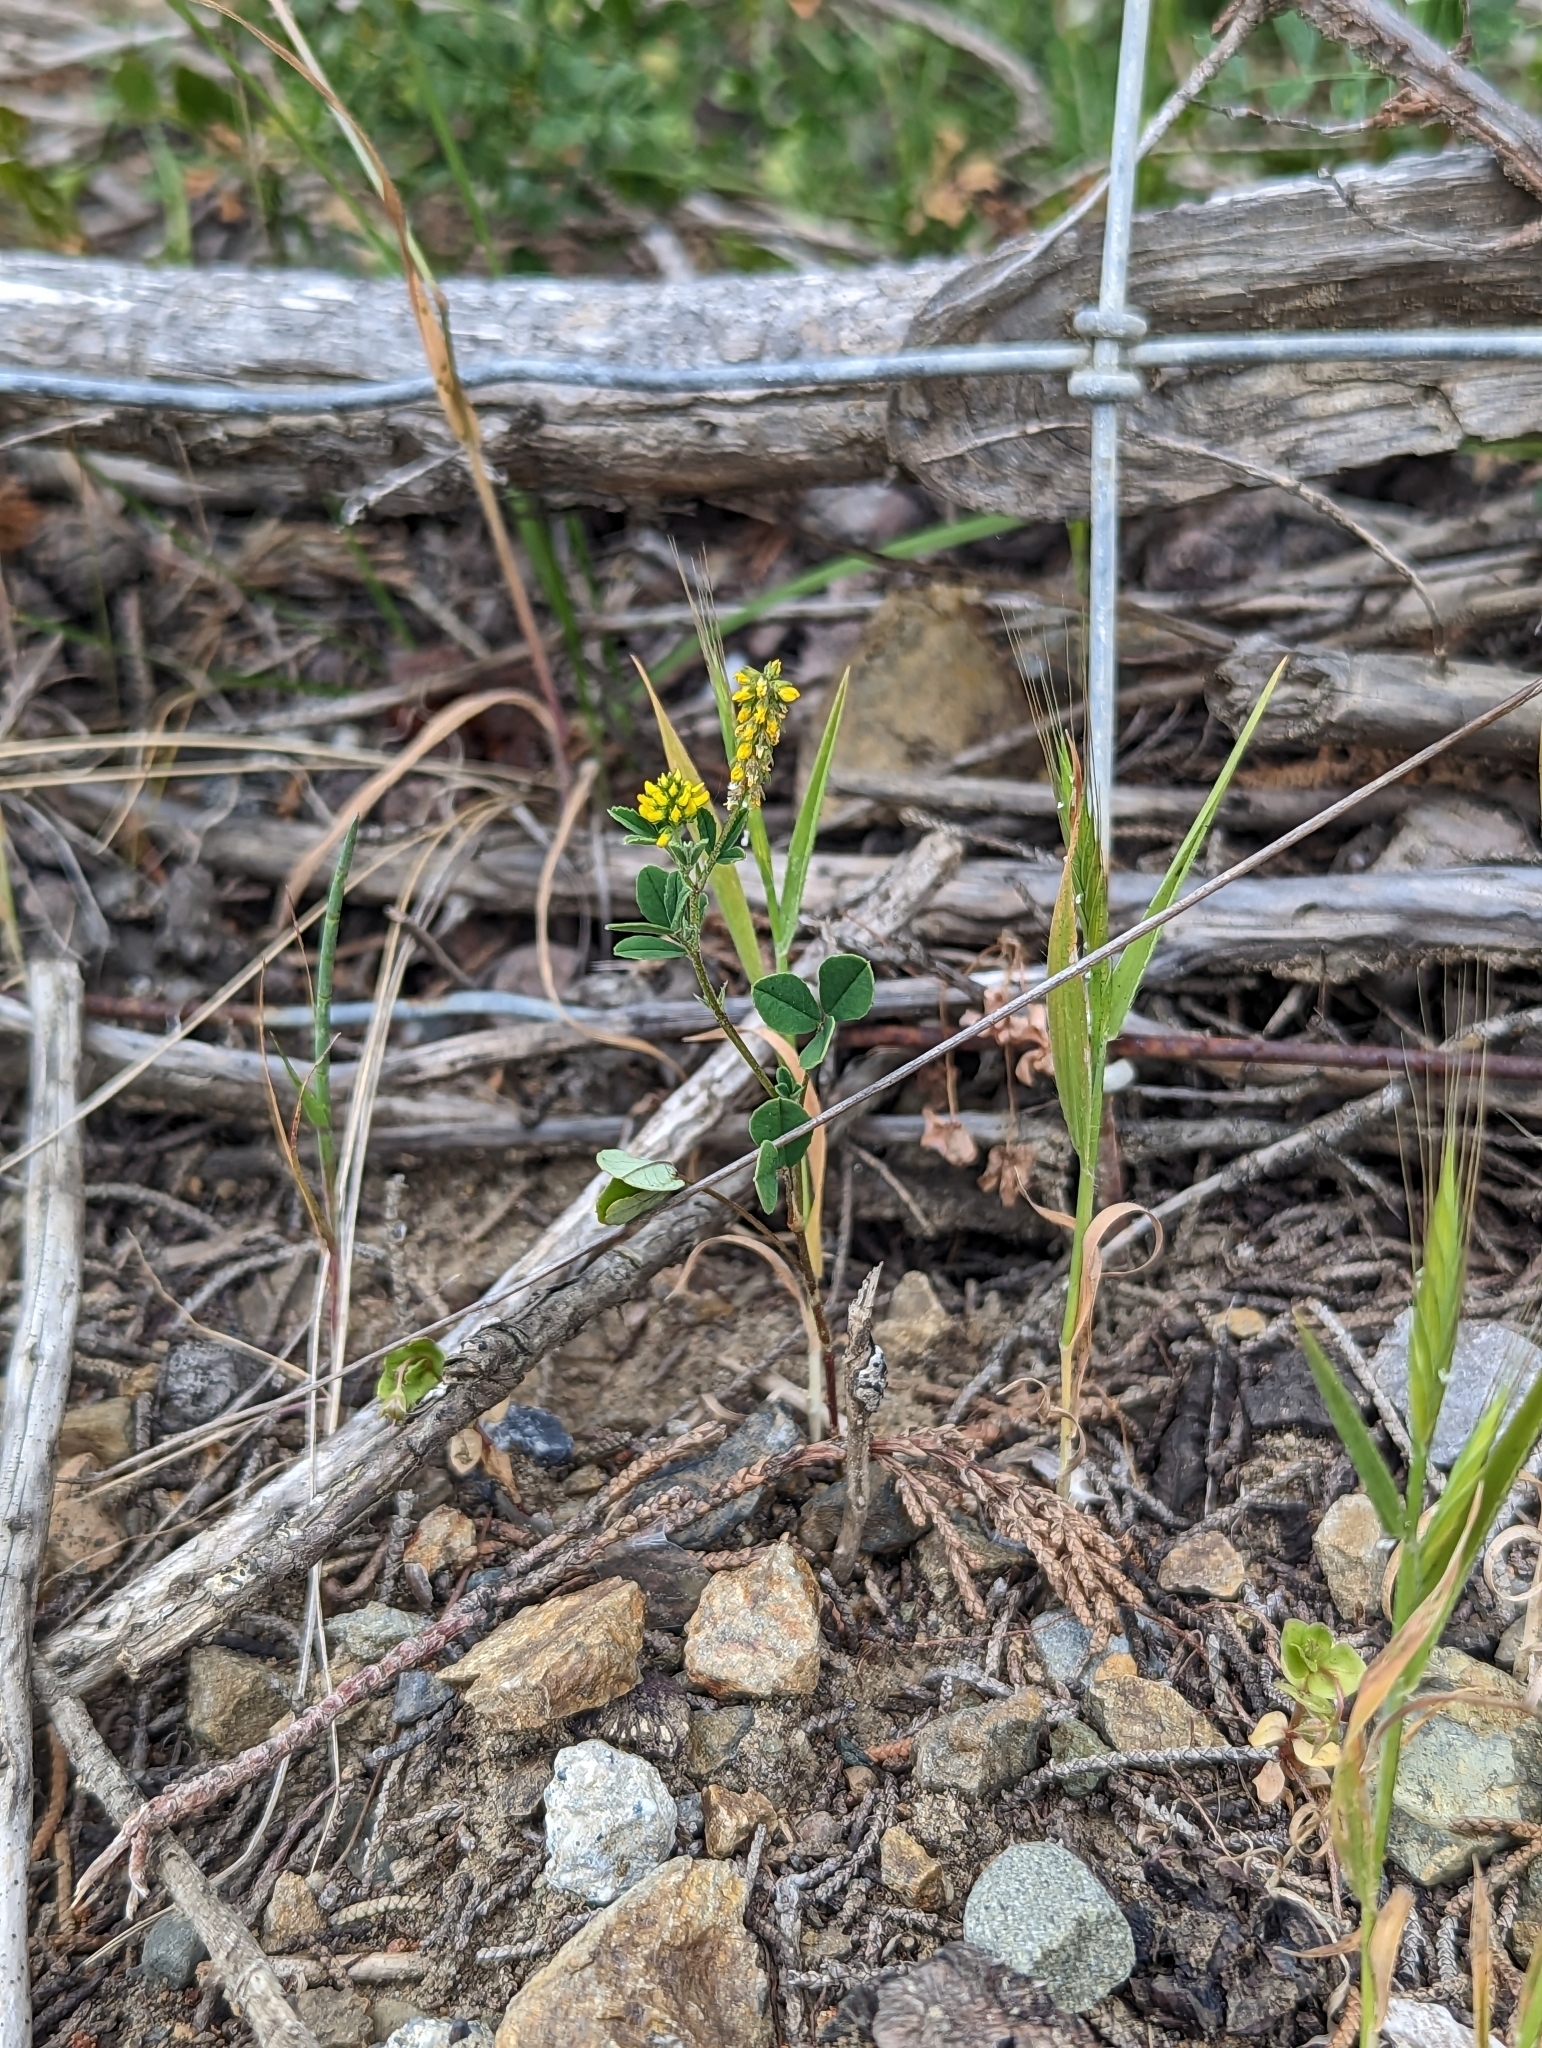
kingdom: Plantae
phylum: Tracheophyta
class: Magnoliopsida
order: Fabales
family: Fabaceae
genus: Melilotus
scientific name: Melilotus indicus
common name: Small melilot
